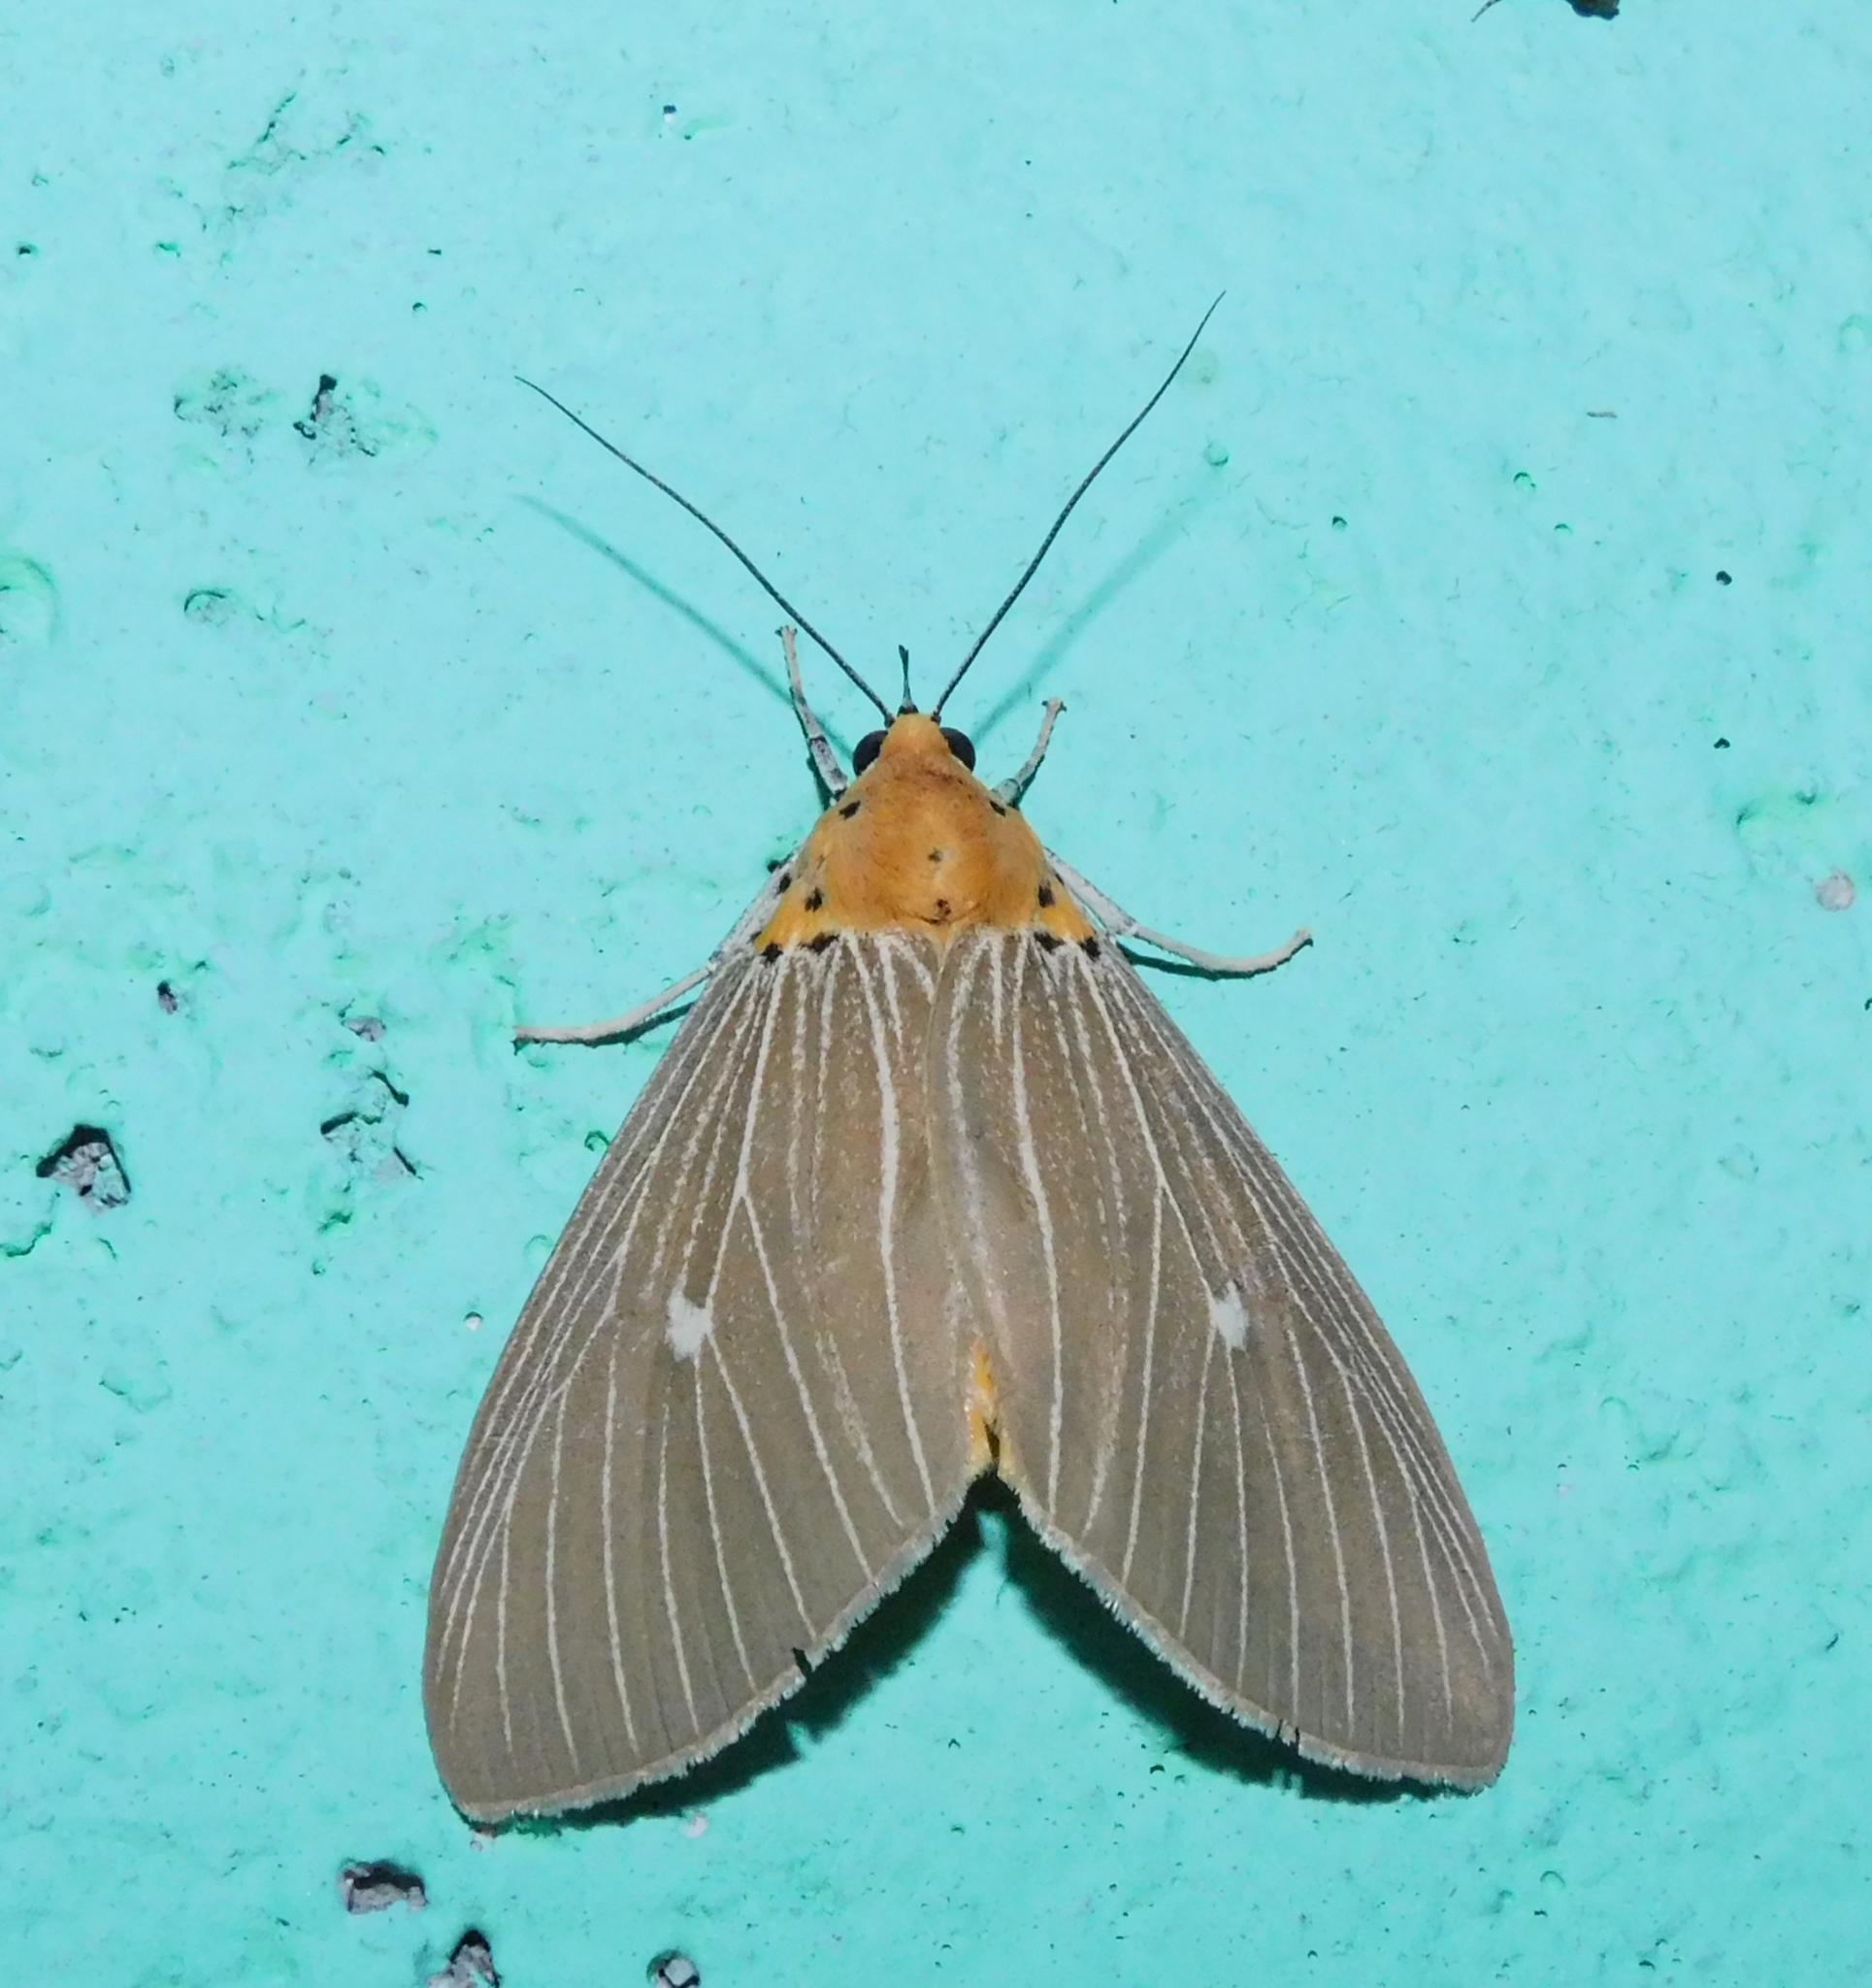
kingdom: Animalia
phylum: Arthropoda
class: Insecta
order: Lepidoptera
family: Erebidae
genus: Asota
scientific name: Asota caricae
